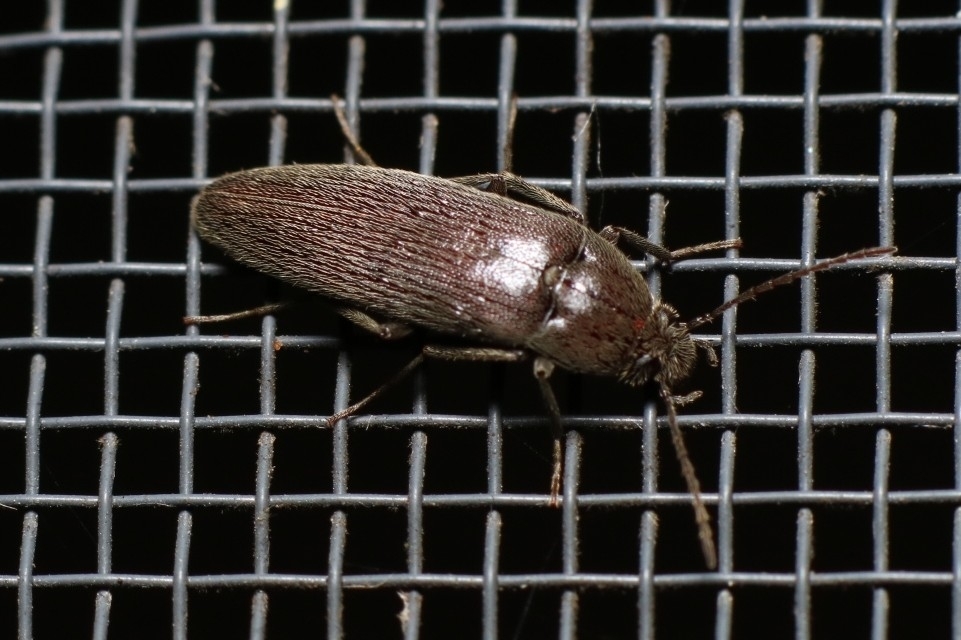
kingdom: Animalia
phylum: Arthropoda
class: Insecta
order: Coleoptera
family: Synchroidae
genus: Synchroa
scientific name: Synchroa punctata
